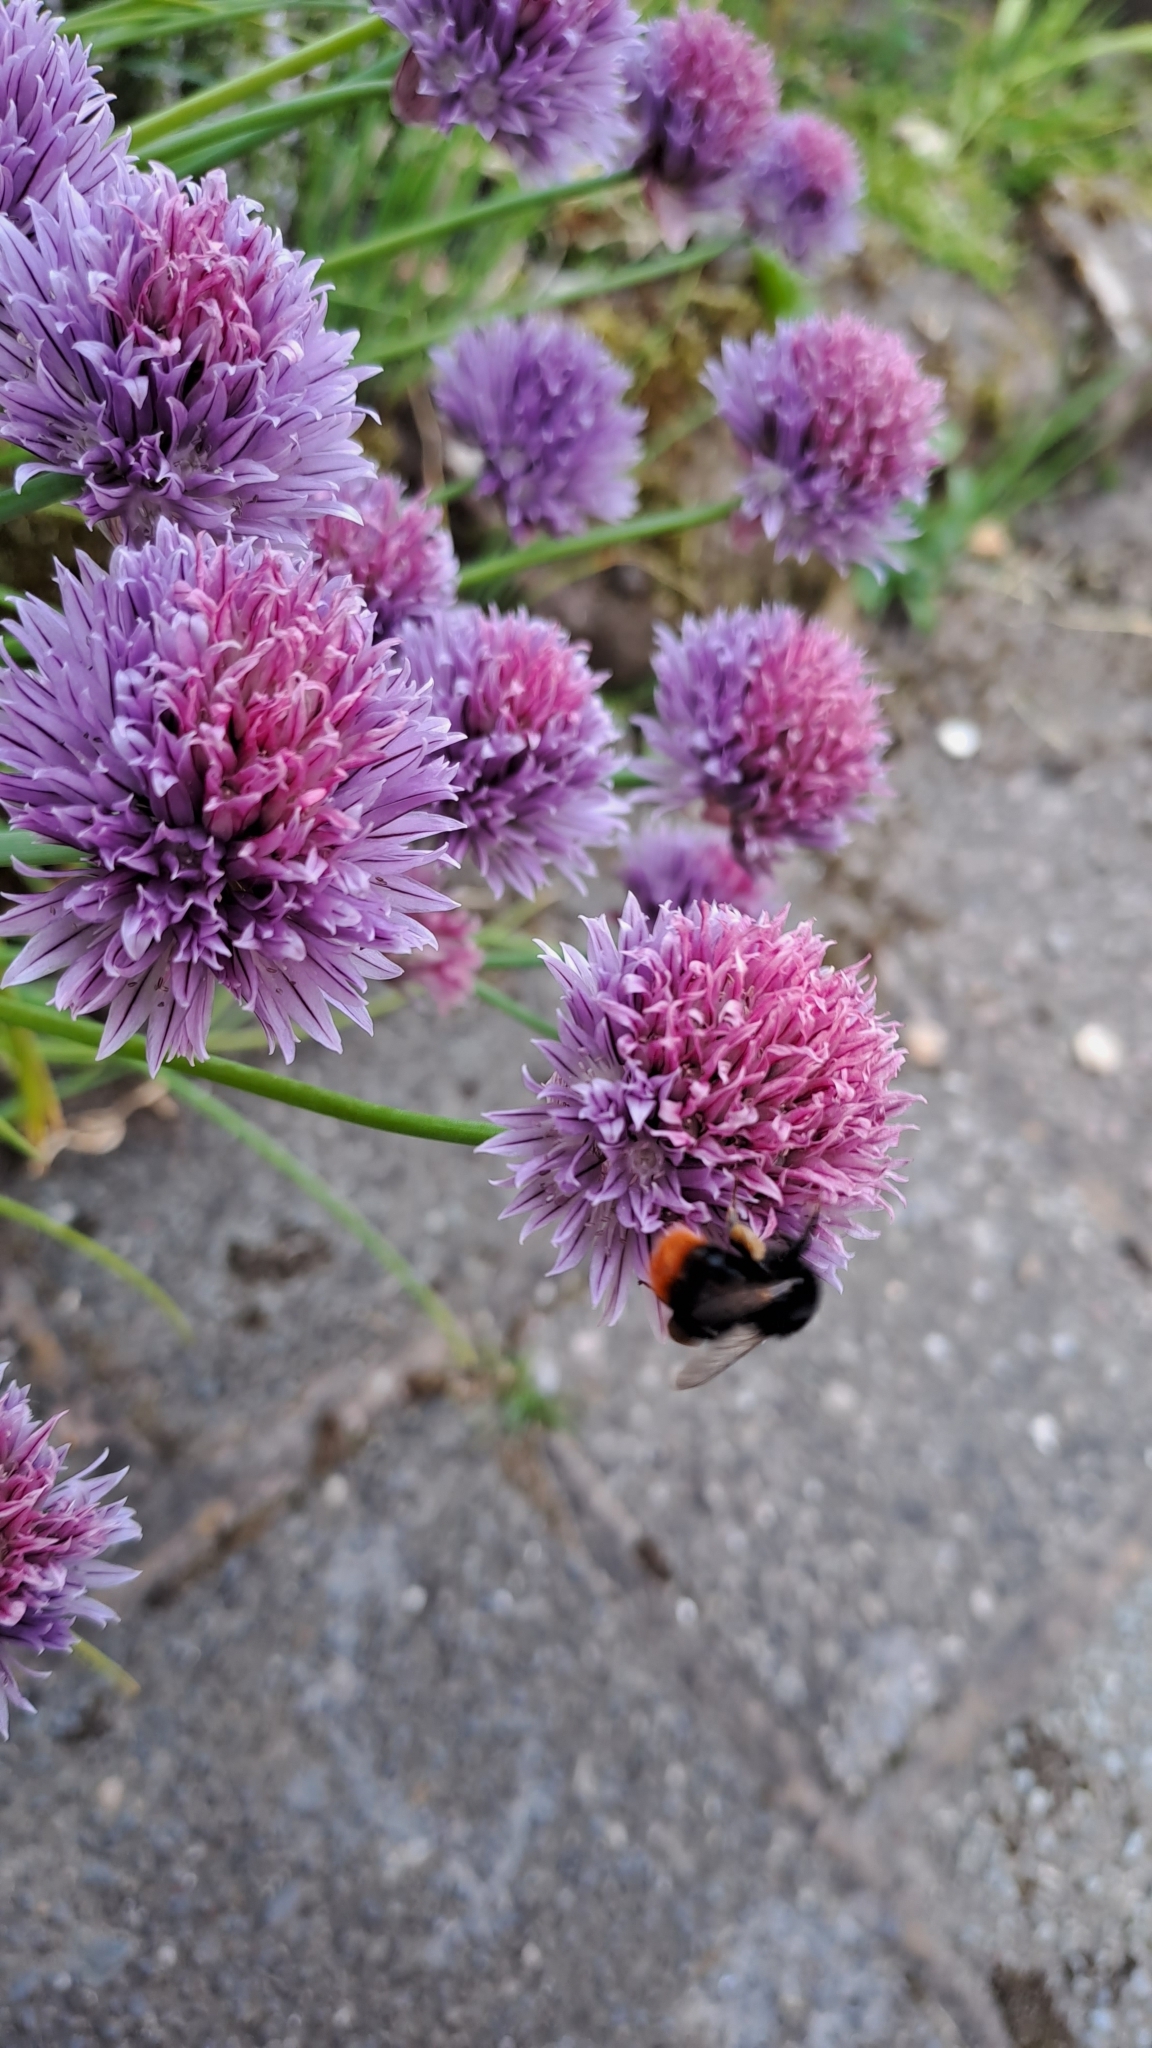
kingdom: Animalia
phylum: Arthropoda
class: Insecta
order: Hymenoptera
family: Apidae
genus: Bombus
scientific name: Bombus lapidarius
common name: Large red-tailed humble-bee
